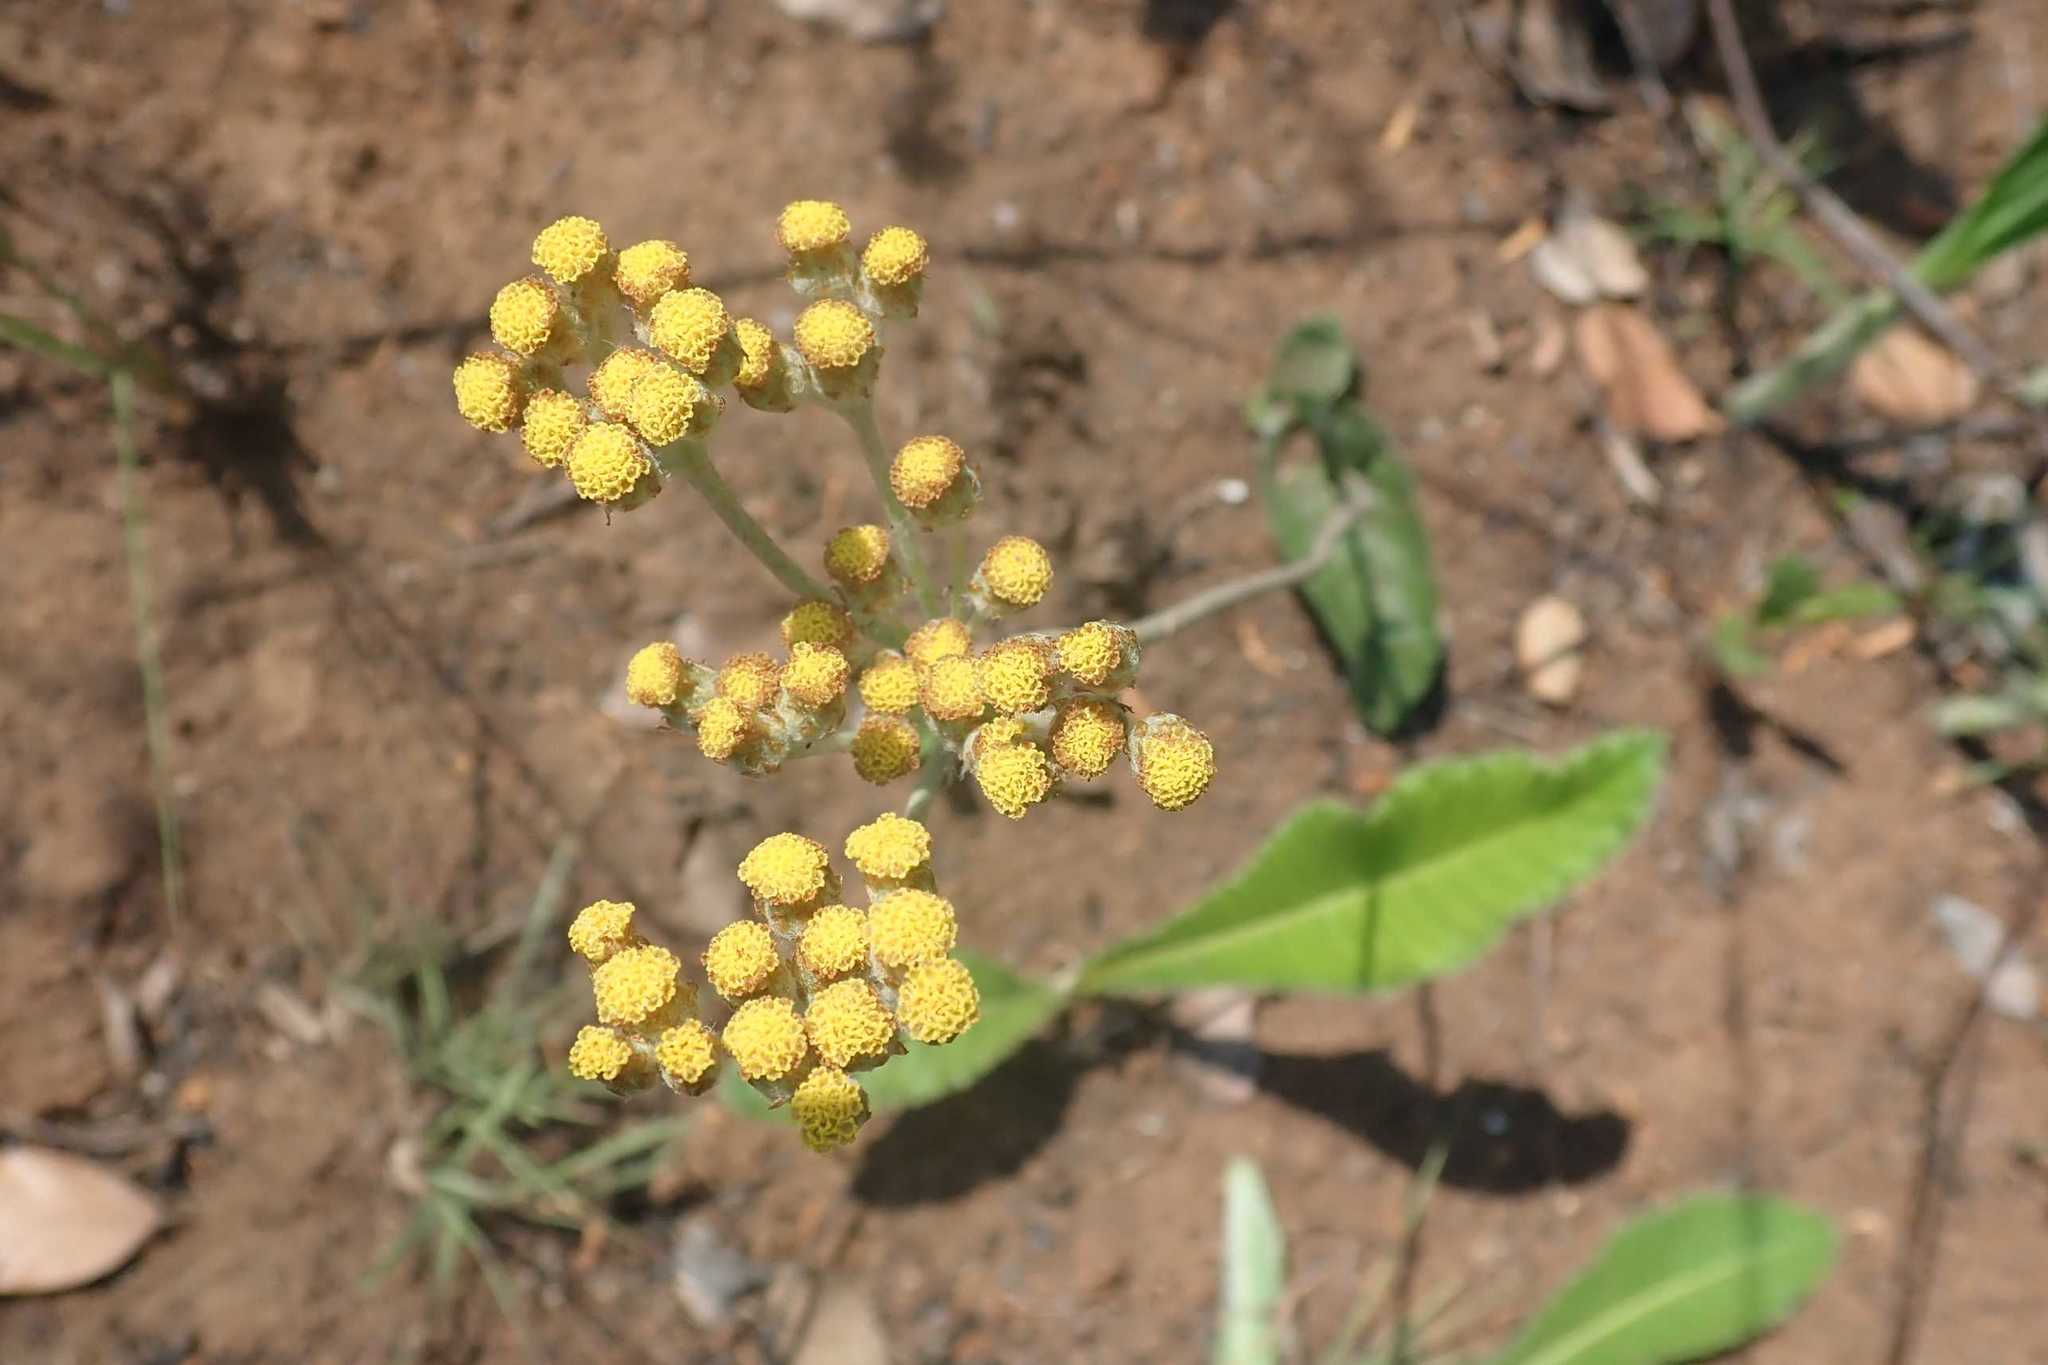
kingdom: Plantae
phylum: Tracheophyta
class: Magnoliopsida
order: Asterales
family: Asteraceae
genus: Helichrysum
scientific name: Helichrysum nudifolium
